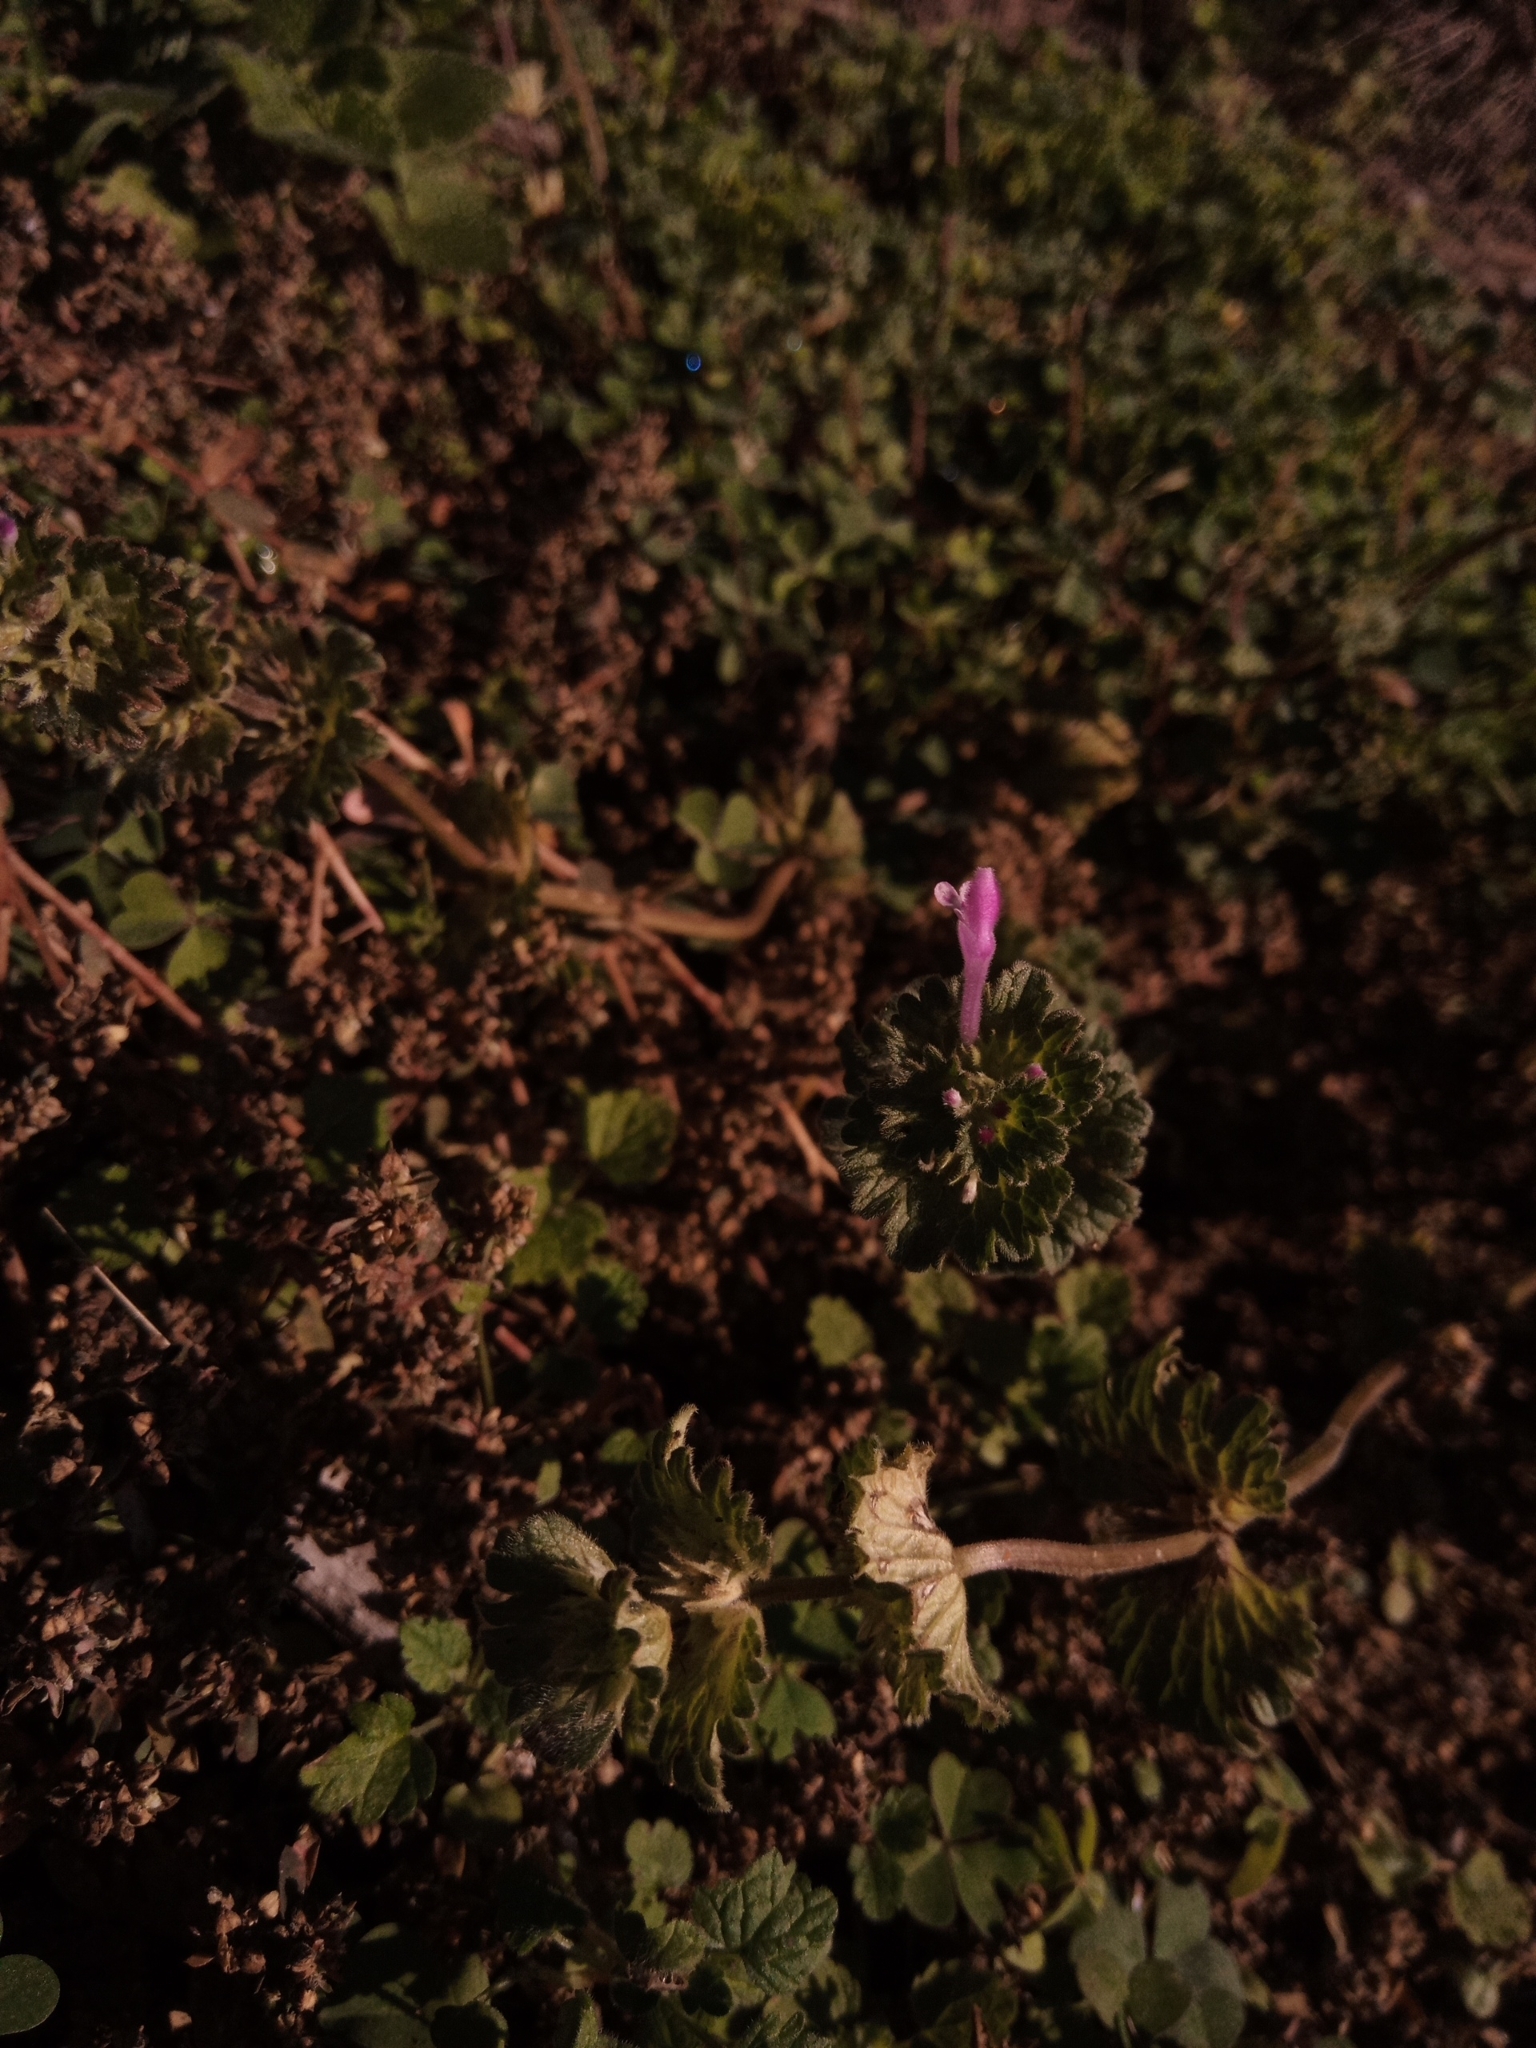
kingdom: Plantae
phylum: Tracheophyta
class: Magnoliopsida
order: Lamiales
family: Lamiaceae
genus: Lamium
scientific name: Lamium amplexicaule
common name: Henbit dead-nettle
